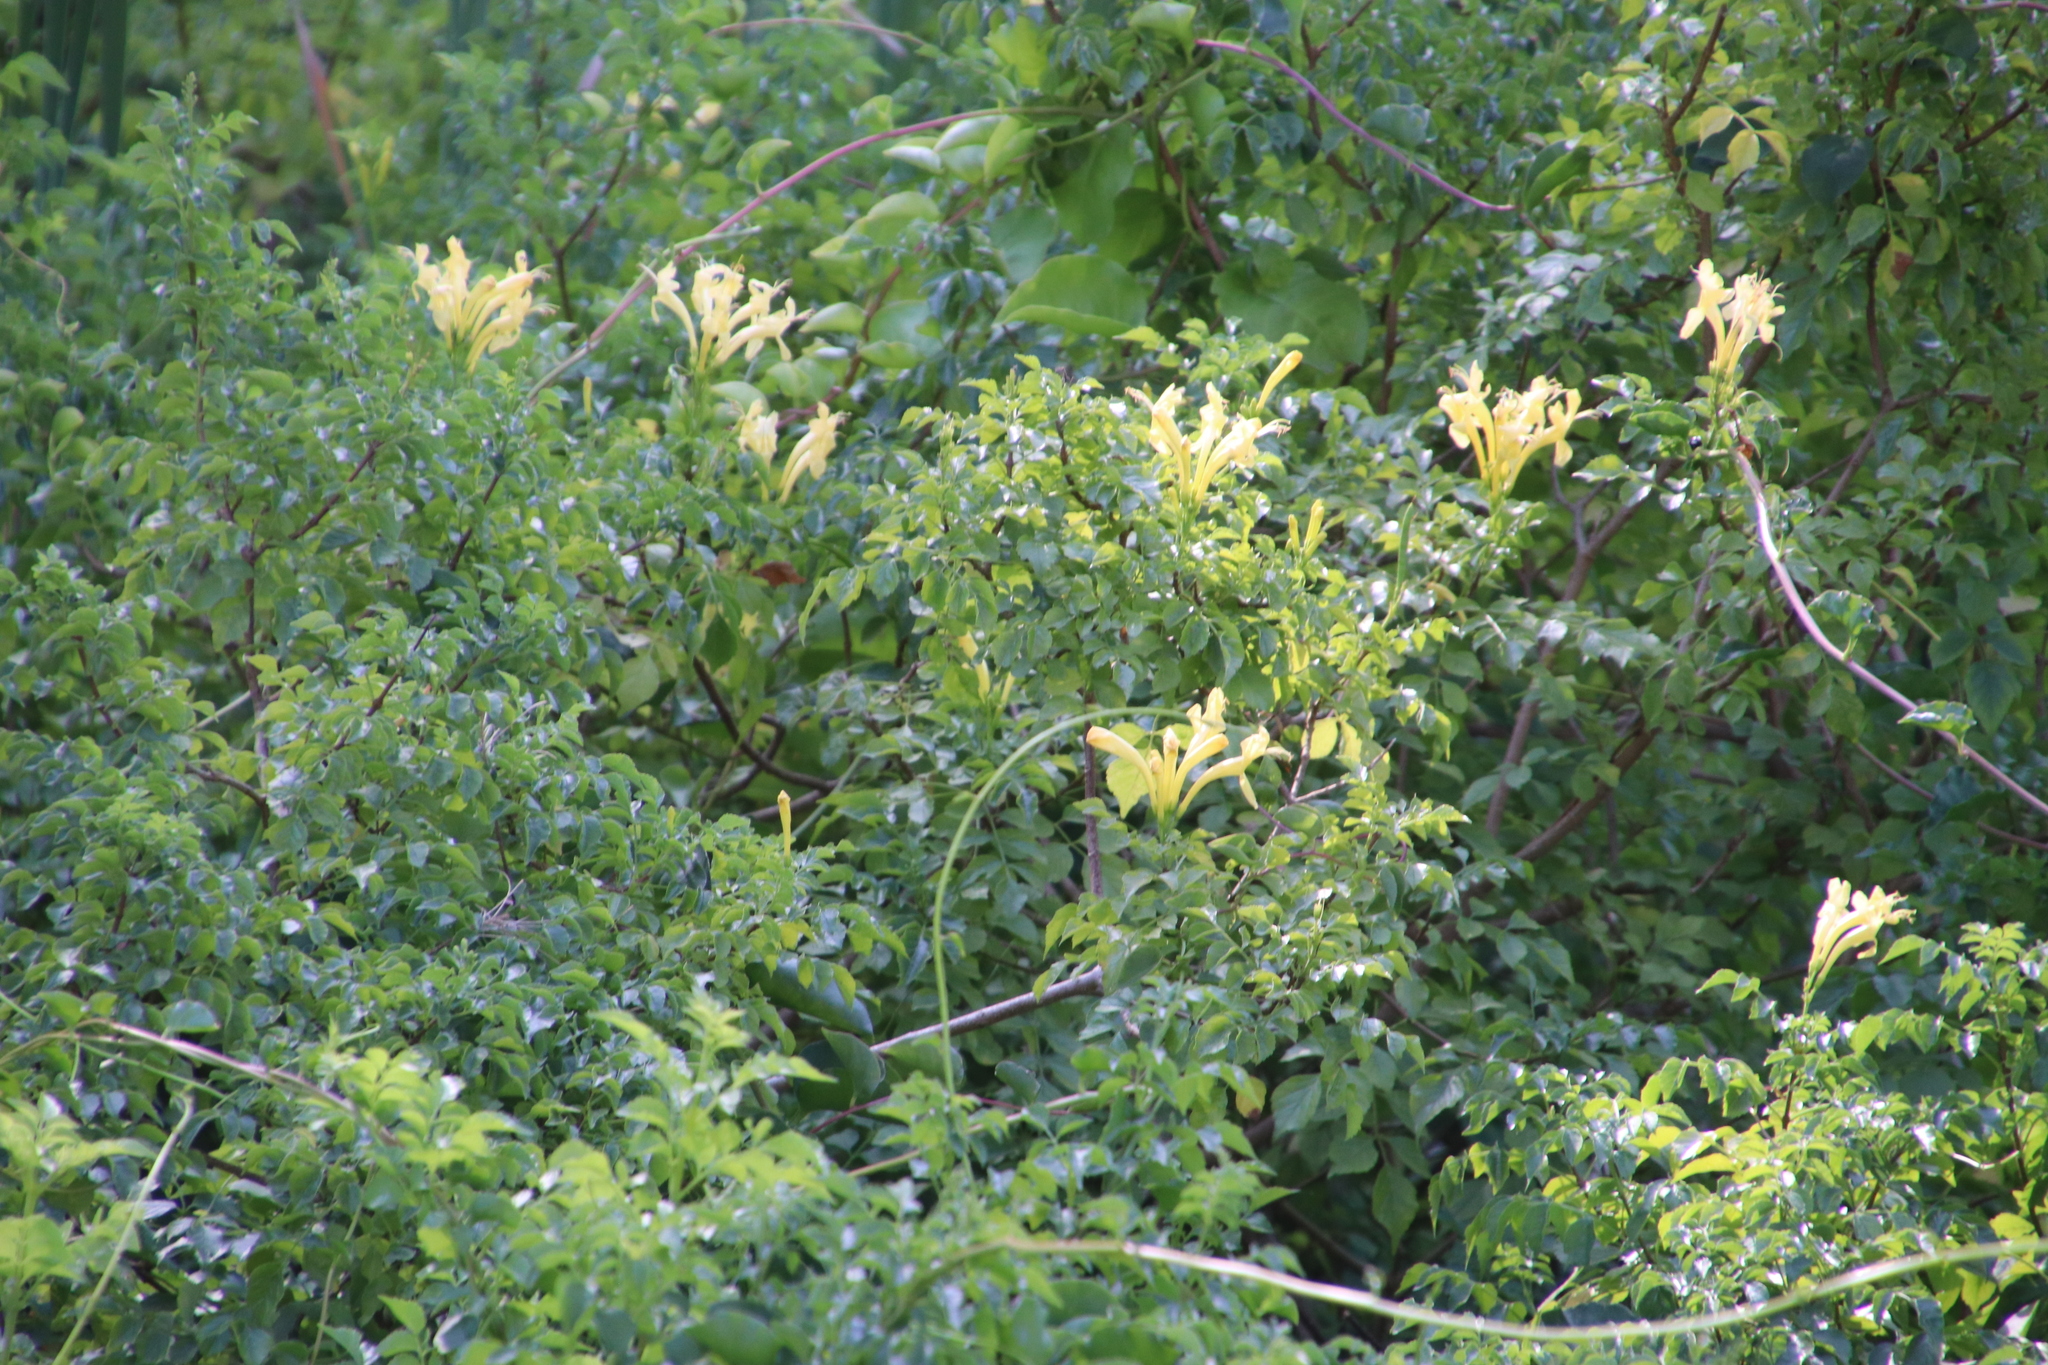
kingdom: Plantae
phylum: Tracheophyta
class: Magnoliopsida
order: Lamiales
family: Bignoniaceae
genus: Tecomaria
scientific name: Tecomaria capensis
